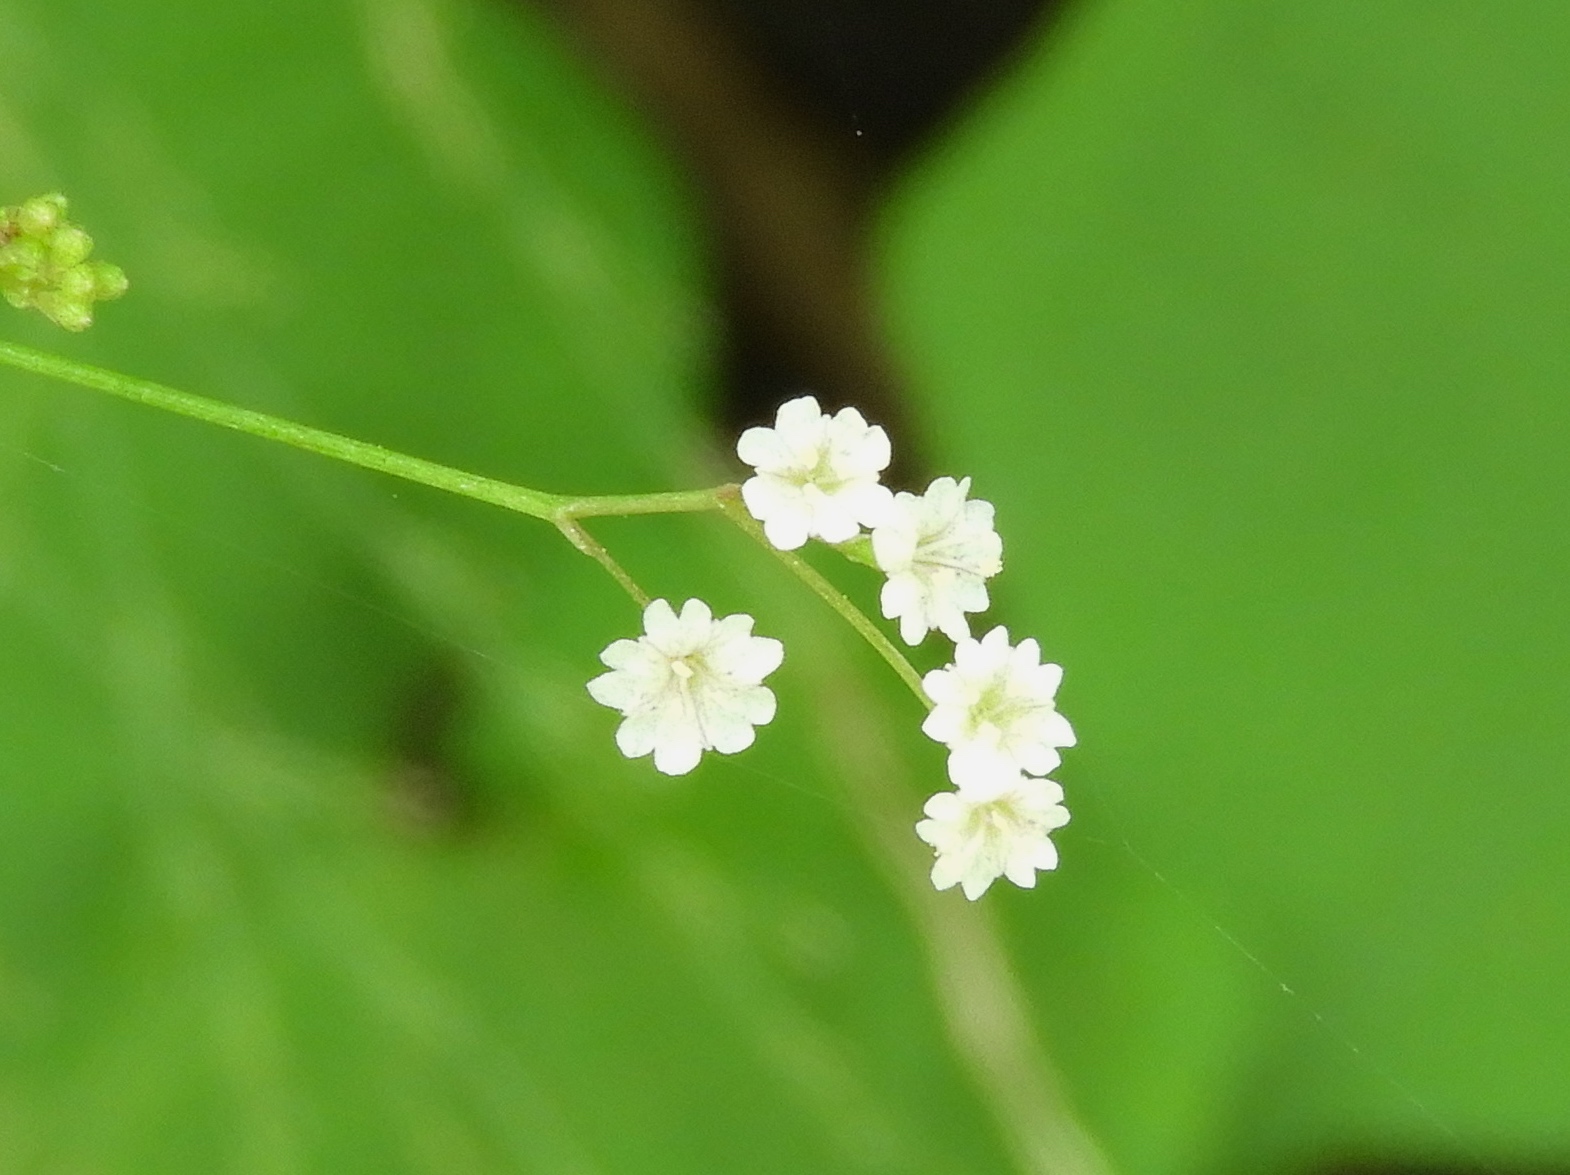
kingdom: Plantae
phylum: Tracheophyta
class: Magnoliopsida
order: Caryophyllales
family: Nyctaginaceae
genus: Boerhavia
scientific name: Boerhavia
